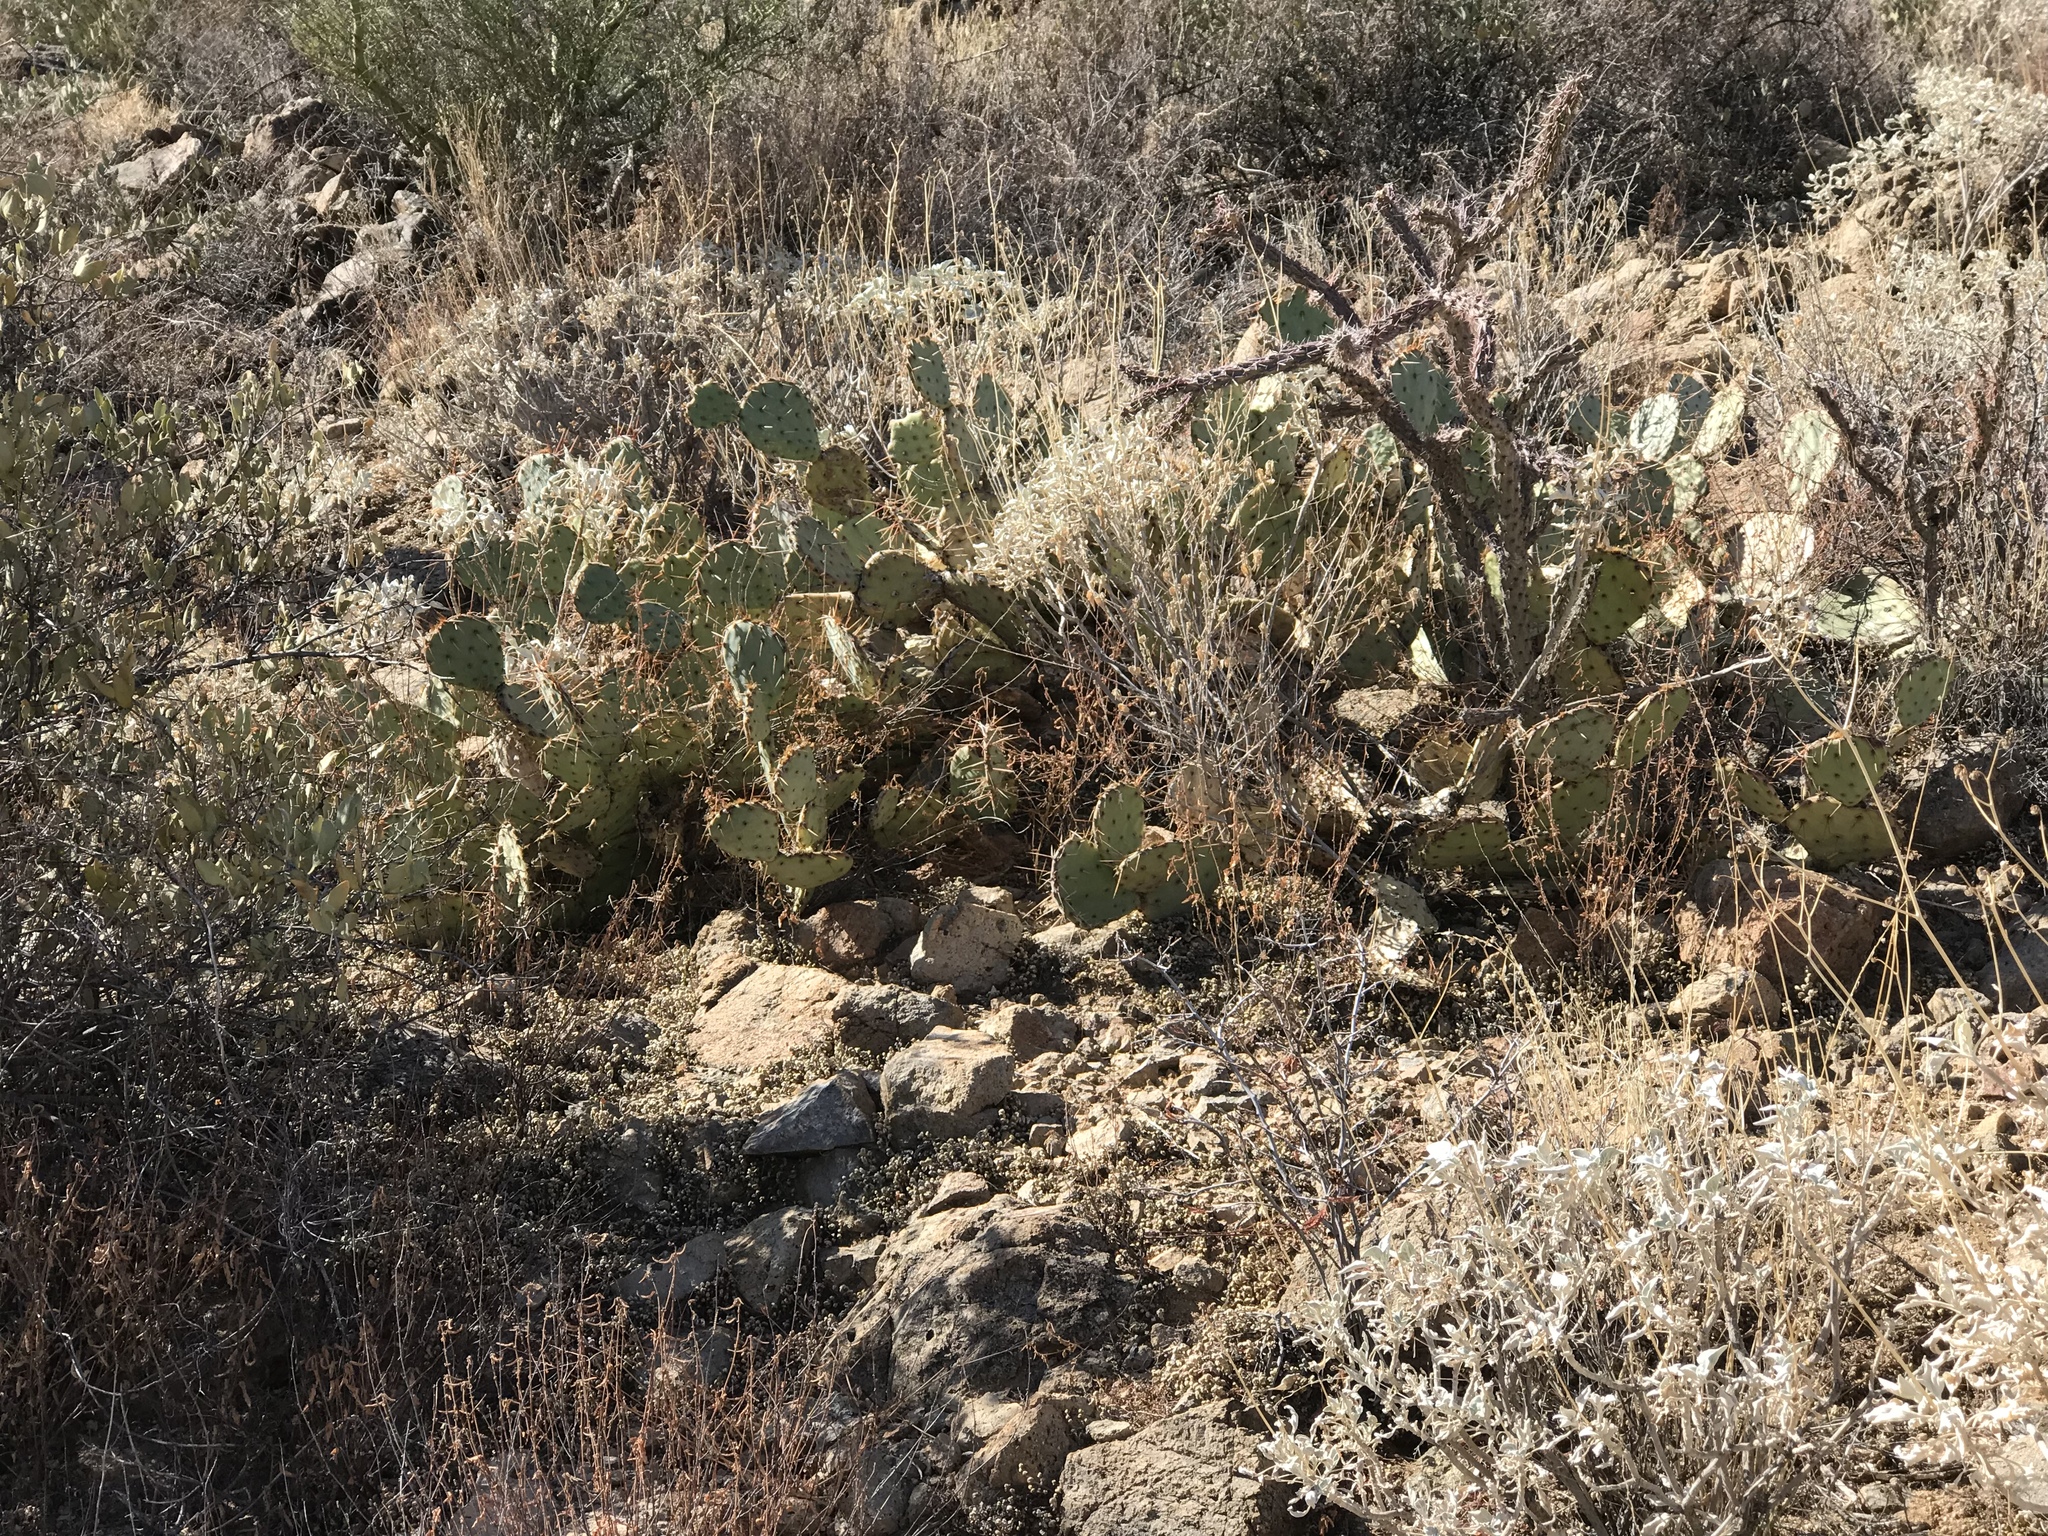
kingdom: Plantae
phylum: Tracheophyta
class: Magnoliopsida
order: Caryophyllales
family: Cactaceae
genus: Opuntia
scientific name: Opuntia phaeacantha
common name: New mexico prickly-pear
